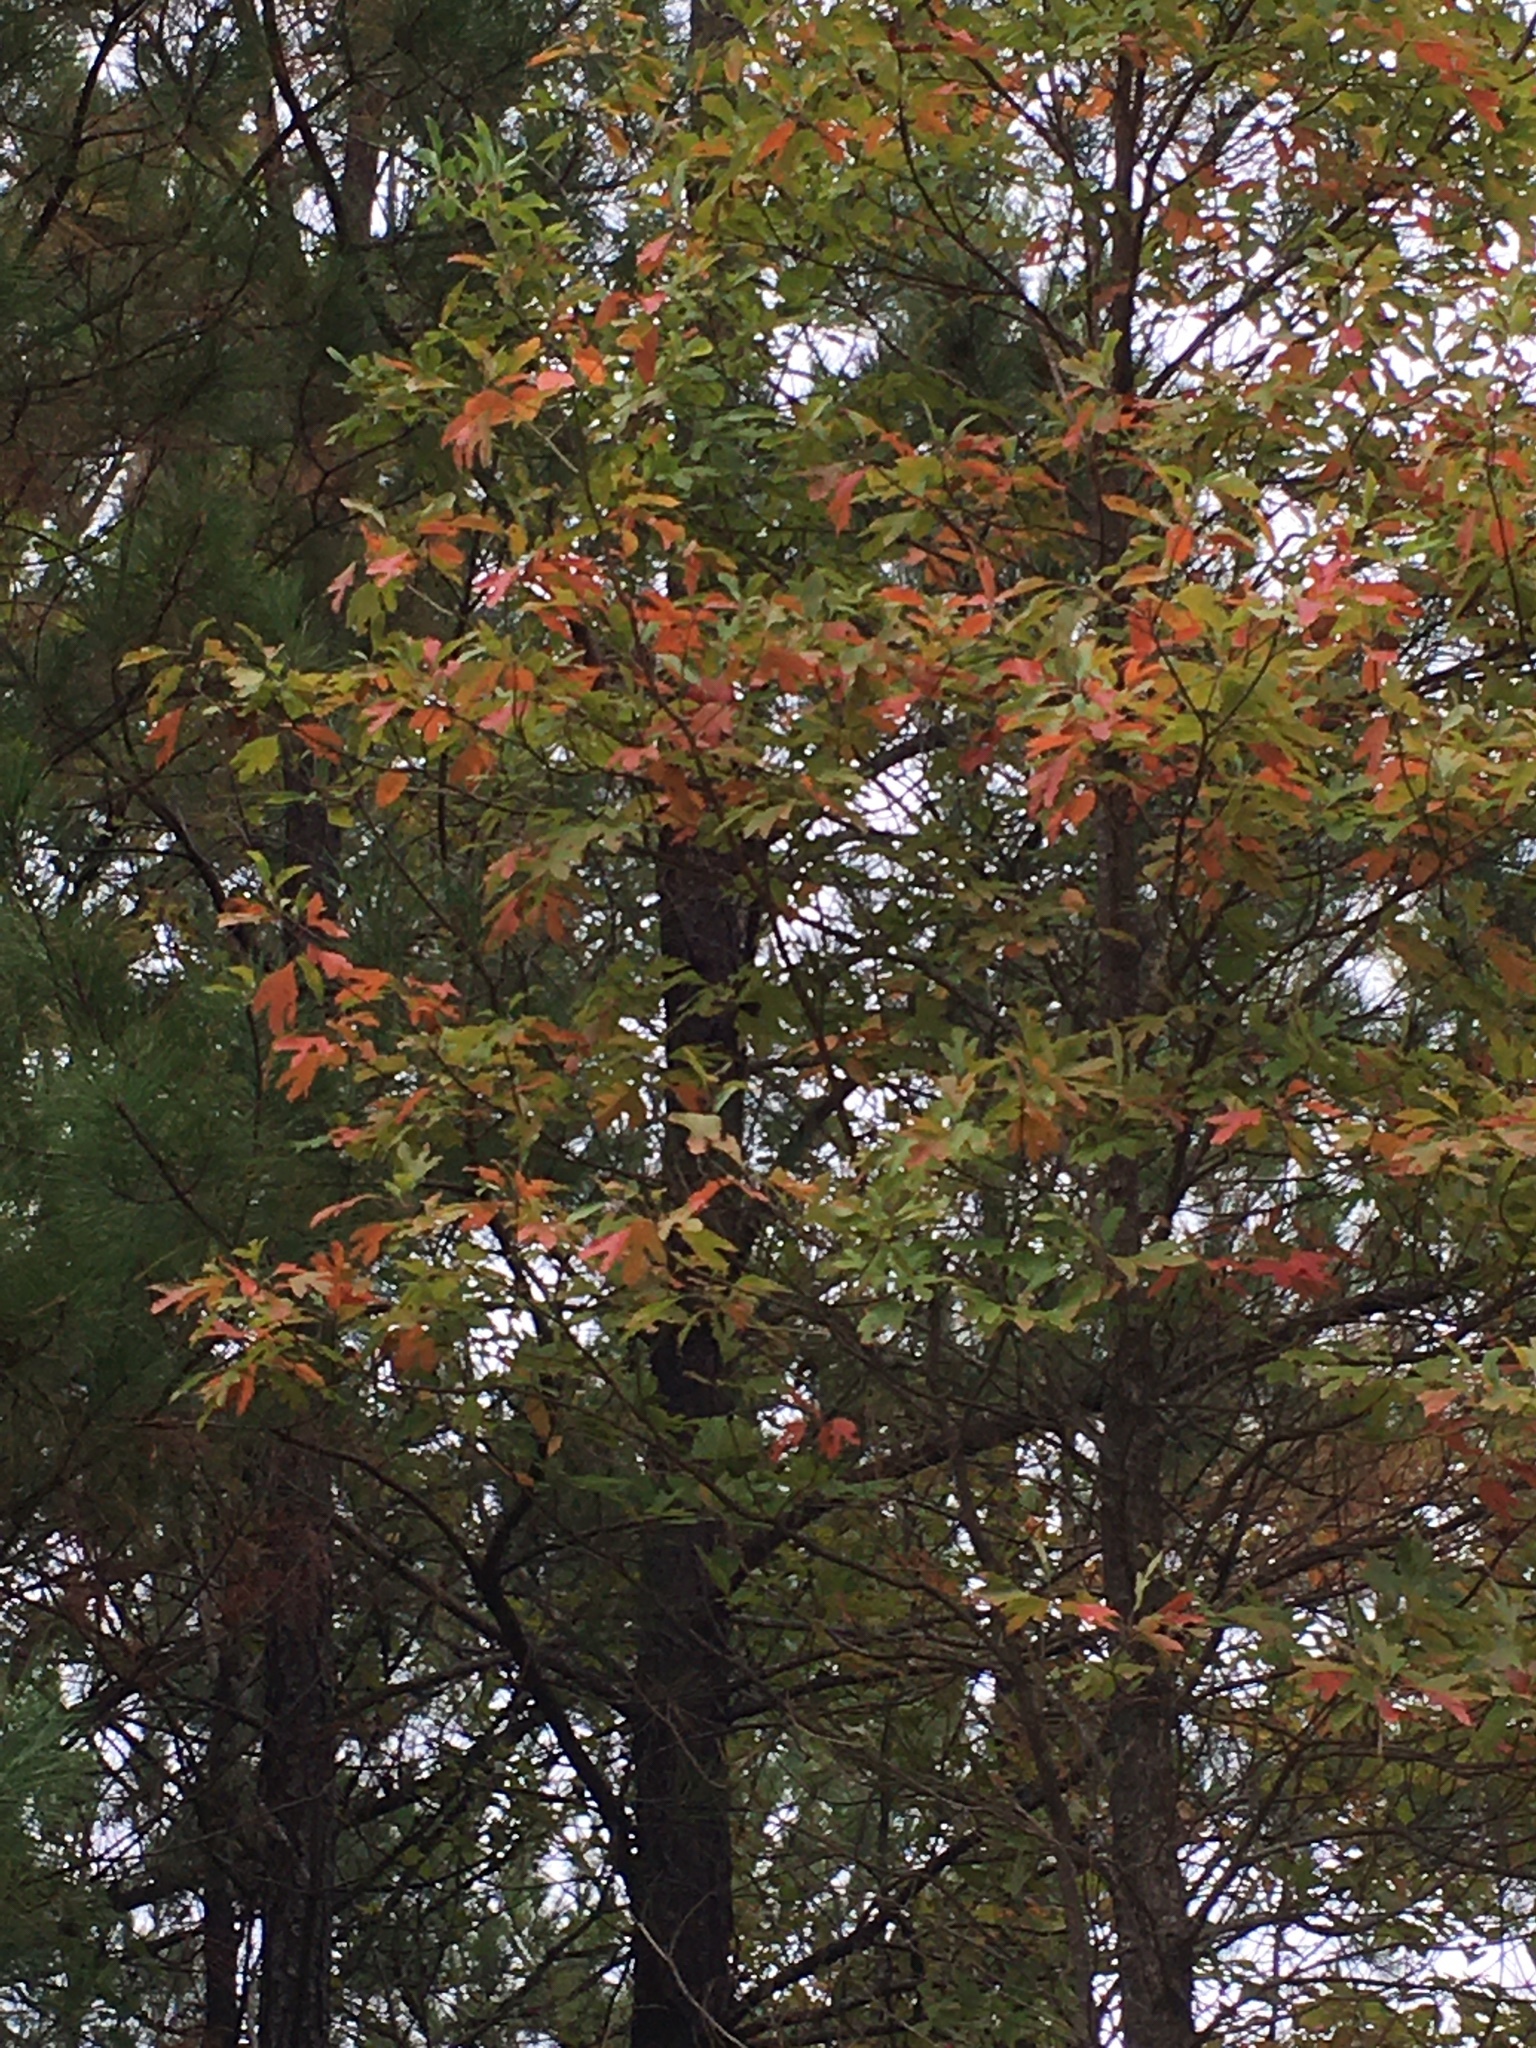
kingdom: Plantae
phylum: Tracheophyta
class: Magnoliopsida
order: Laurales
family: Lauraceae
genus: Sassafras
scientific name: Sassafras albidum
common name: Sassafras
